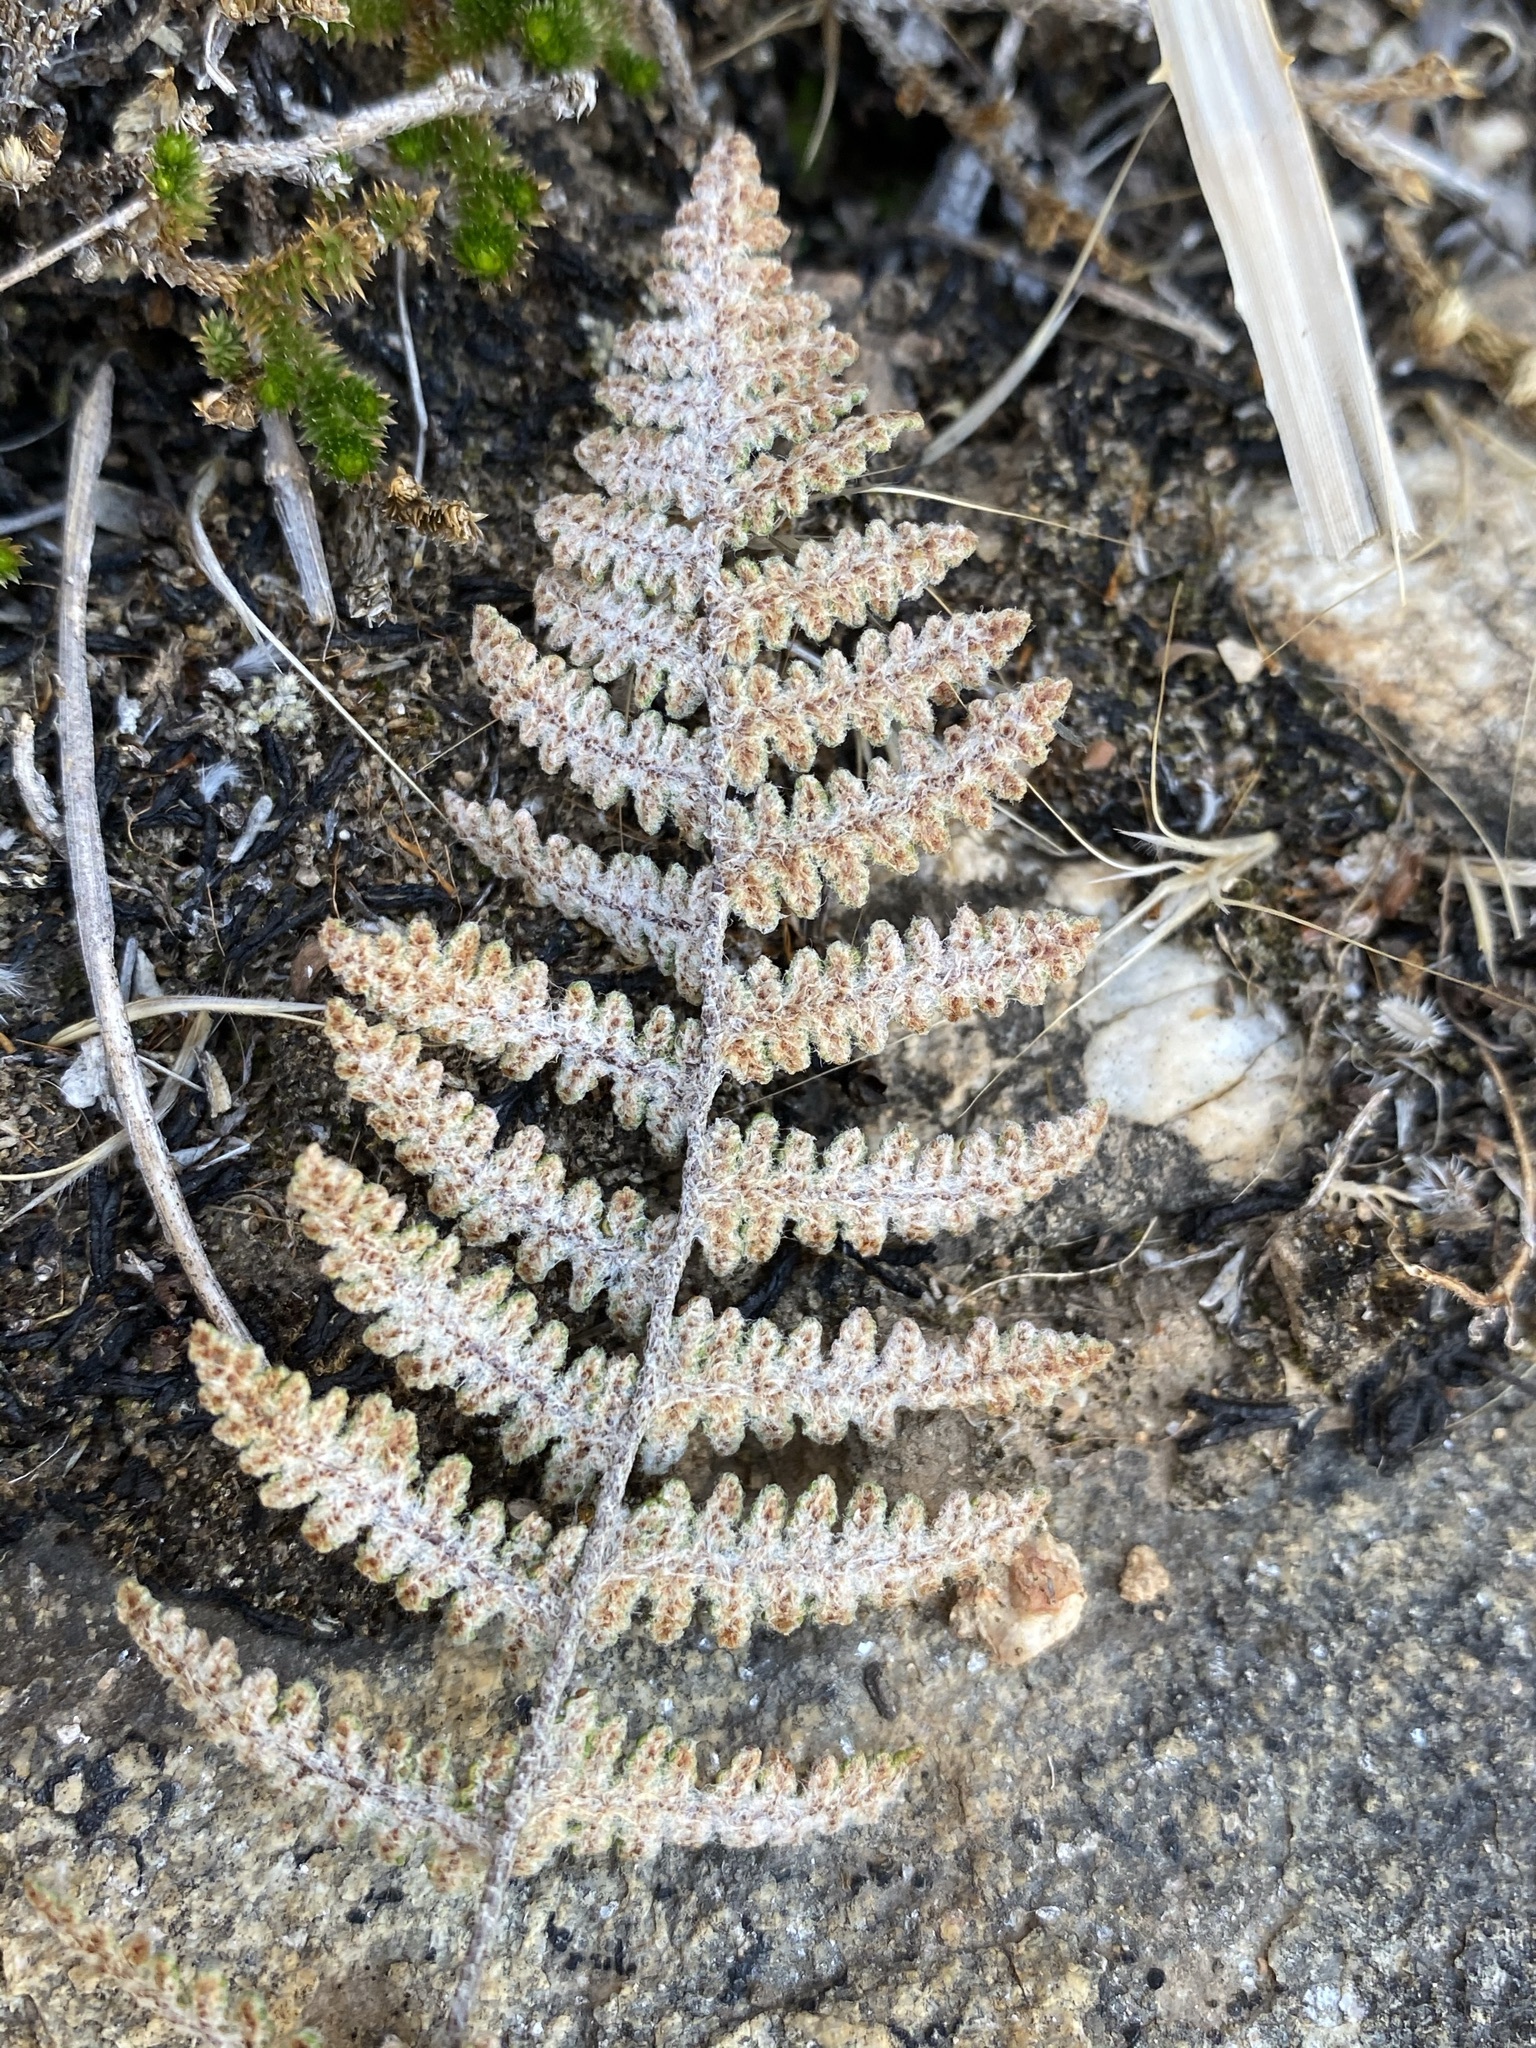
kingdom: Plantae
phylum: Tracheophyta
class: Polypodiopsida
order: Polypodiales
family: Pteridaceae
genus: Myriopteris
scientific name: Myriopteris lindheimeri
